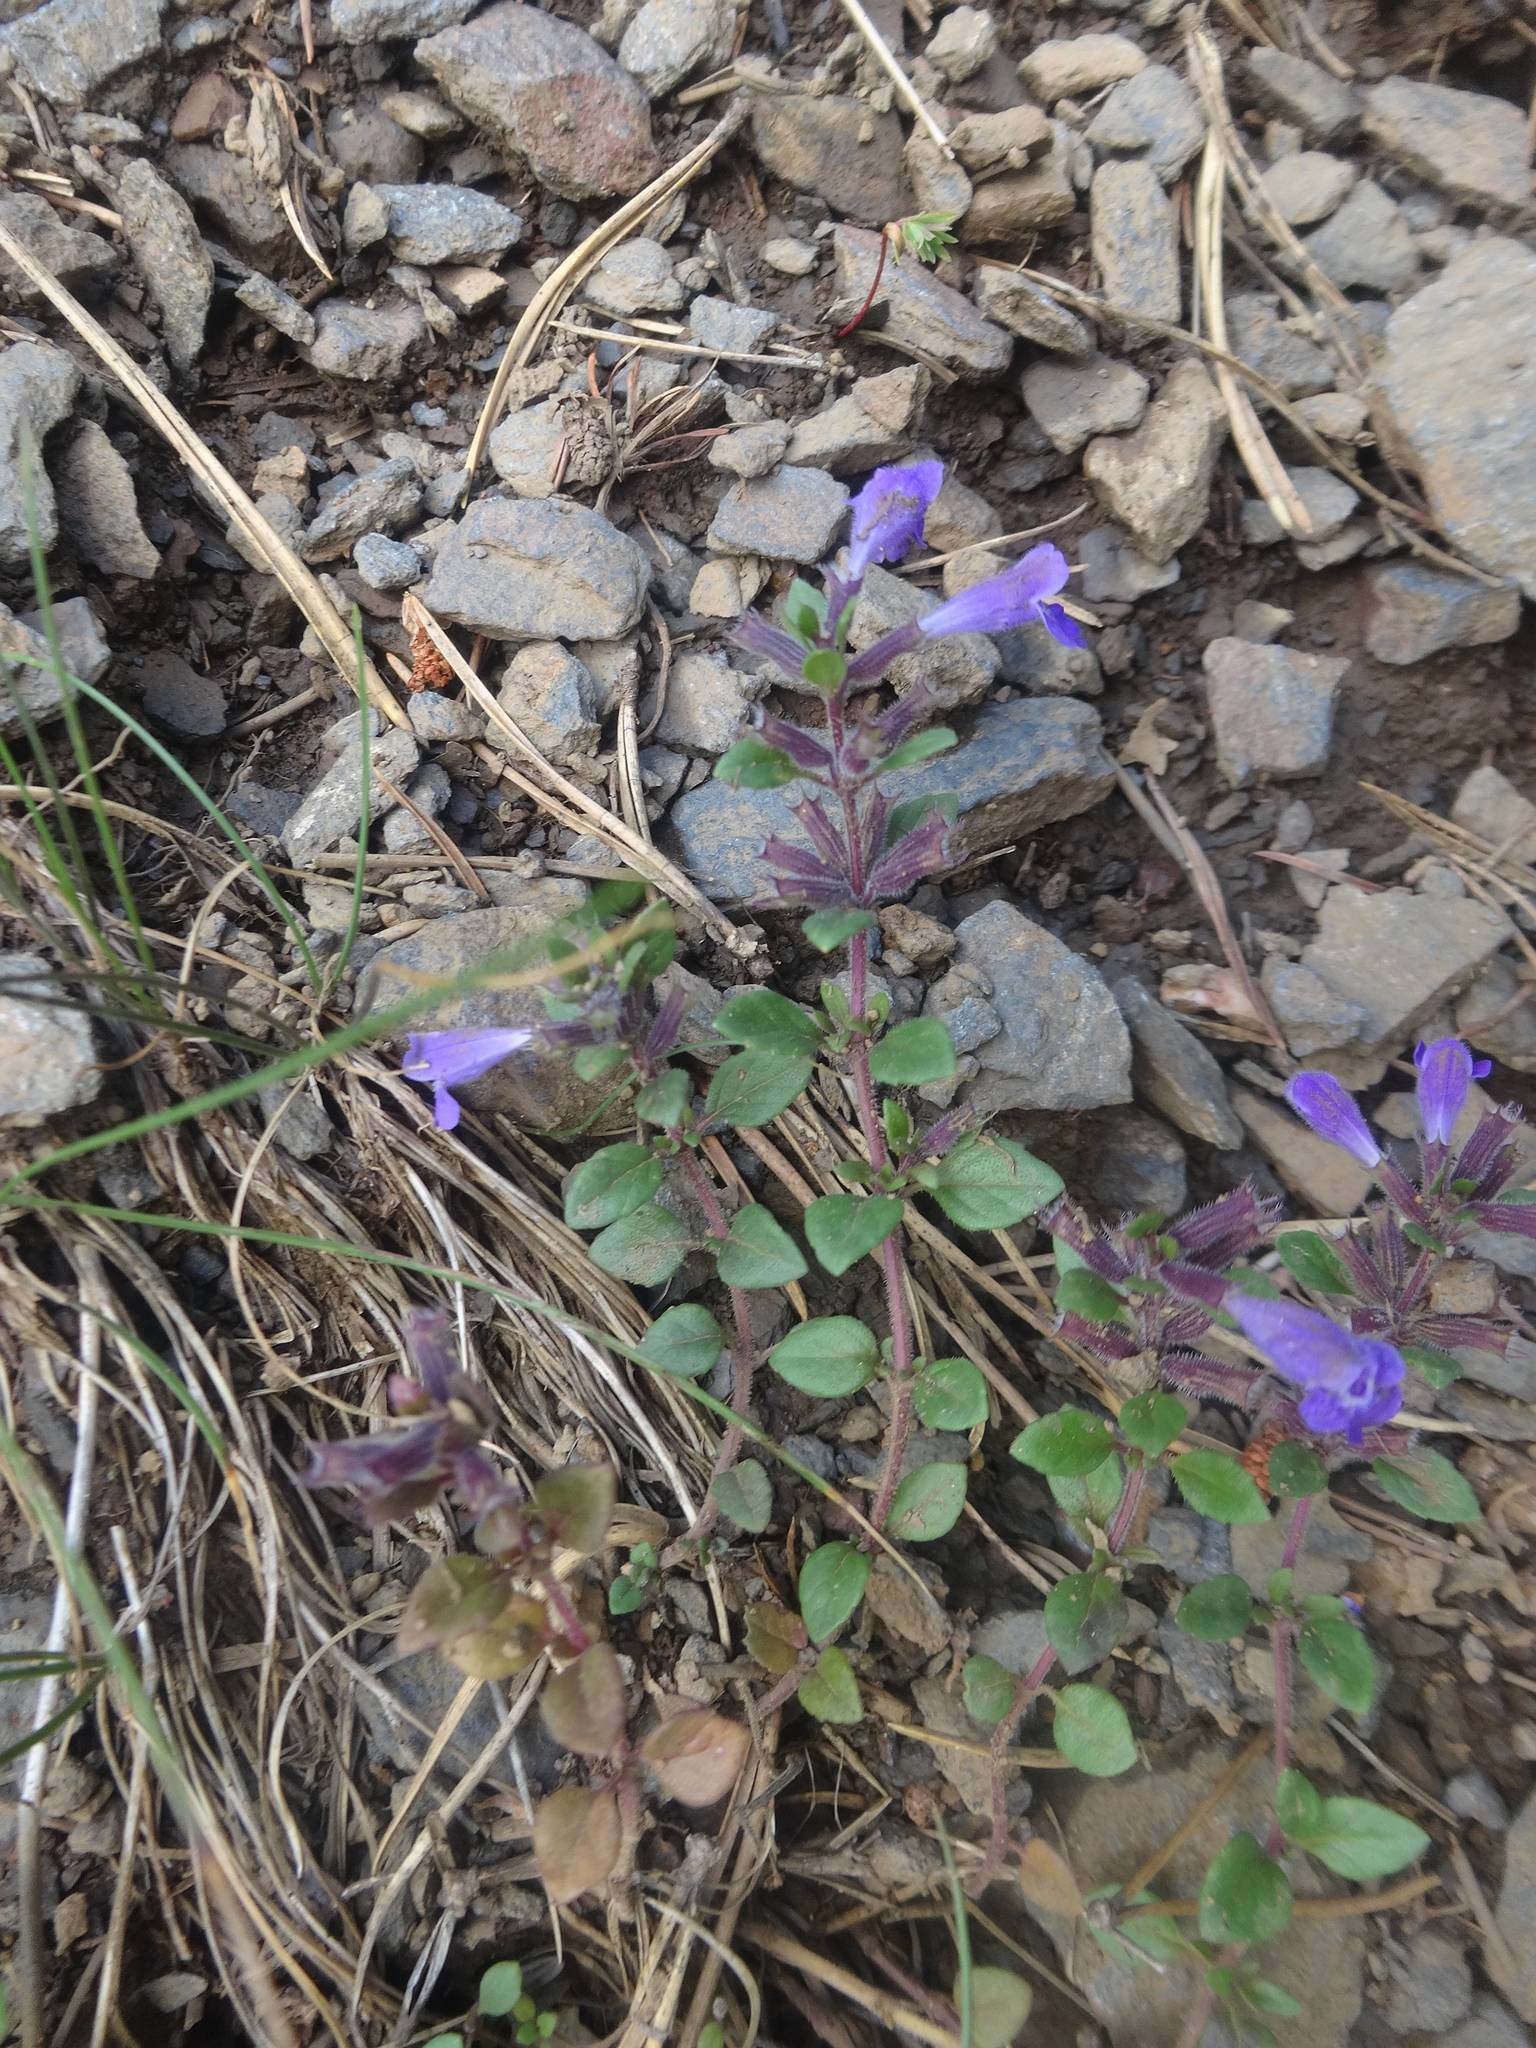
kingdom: Plantae
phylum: Tracheophyta
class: Magnoliopsida
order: Lamiales
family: Lamiaceae
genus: Clinopodium
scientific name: Clinopodium alpinum
